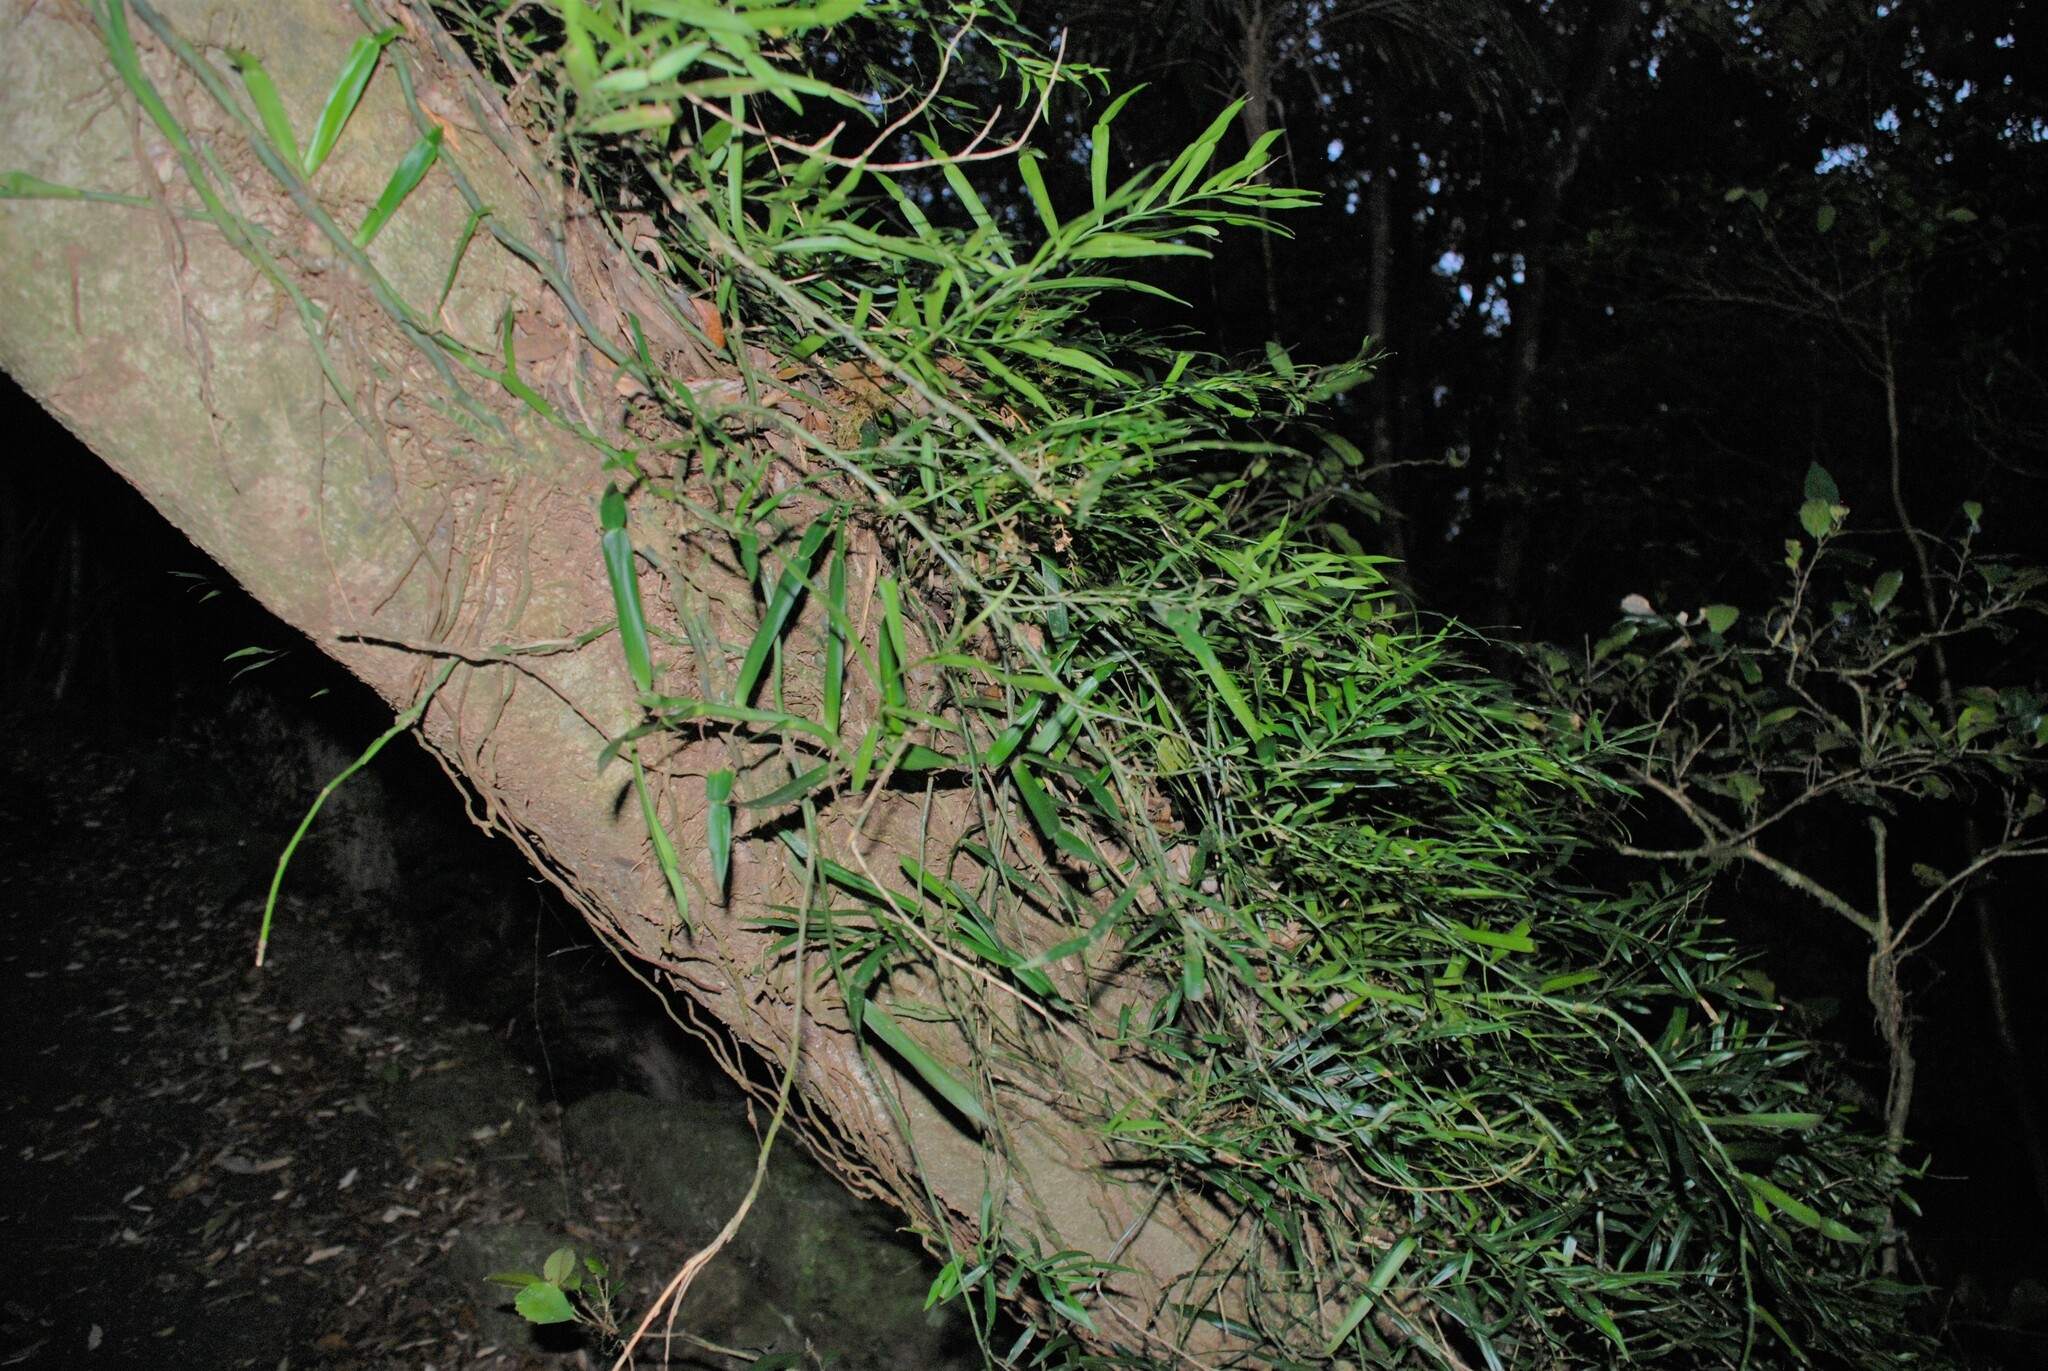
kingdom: Plantae
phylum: Tracheophyta
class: Liliopsida
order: Alismatales
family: Araceae
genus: Pothos
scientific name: Pothos longipes
